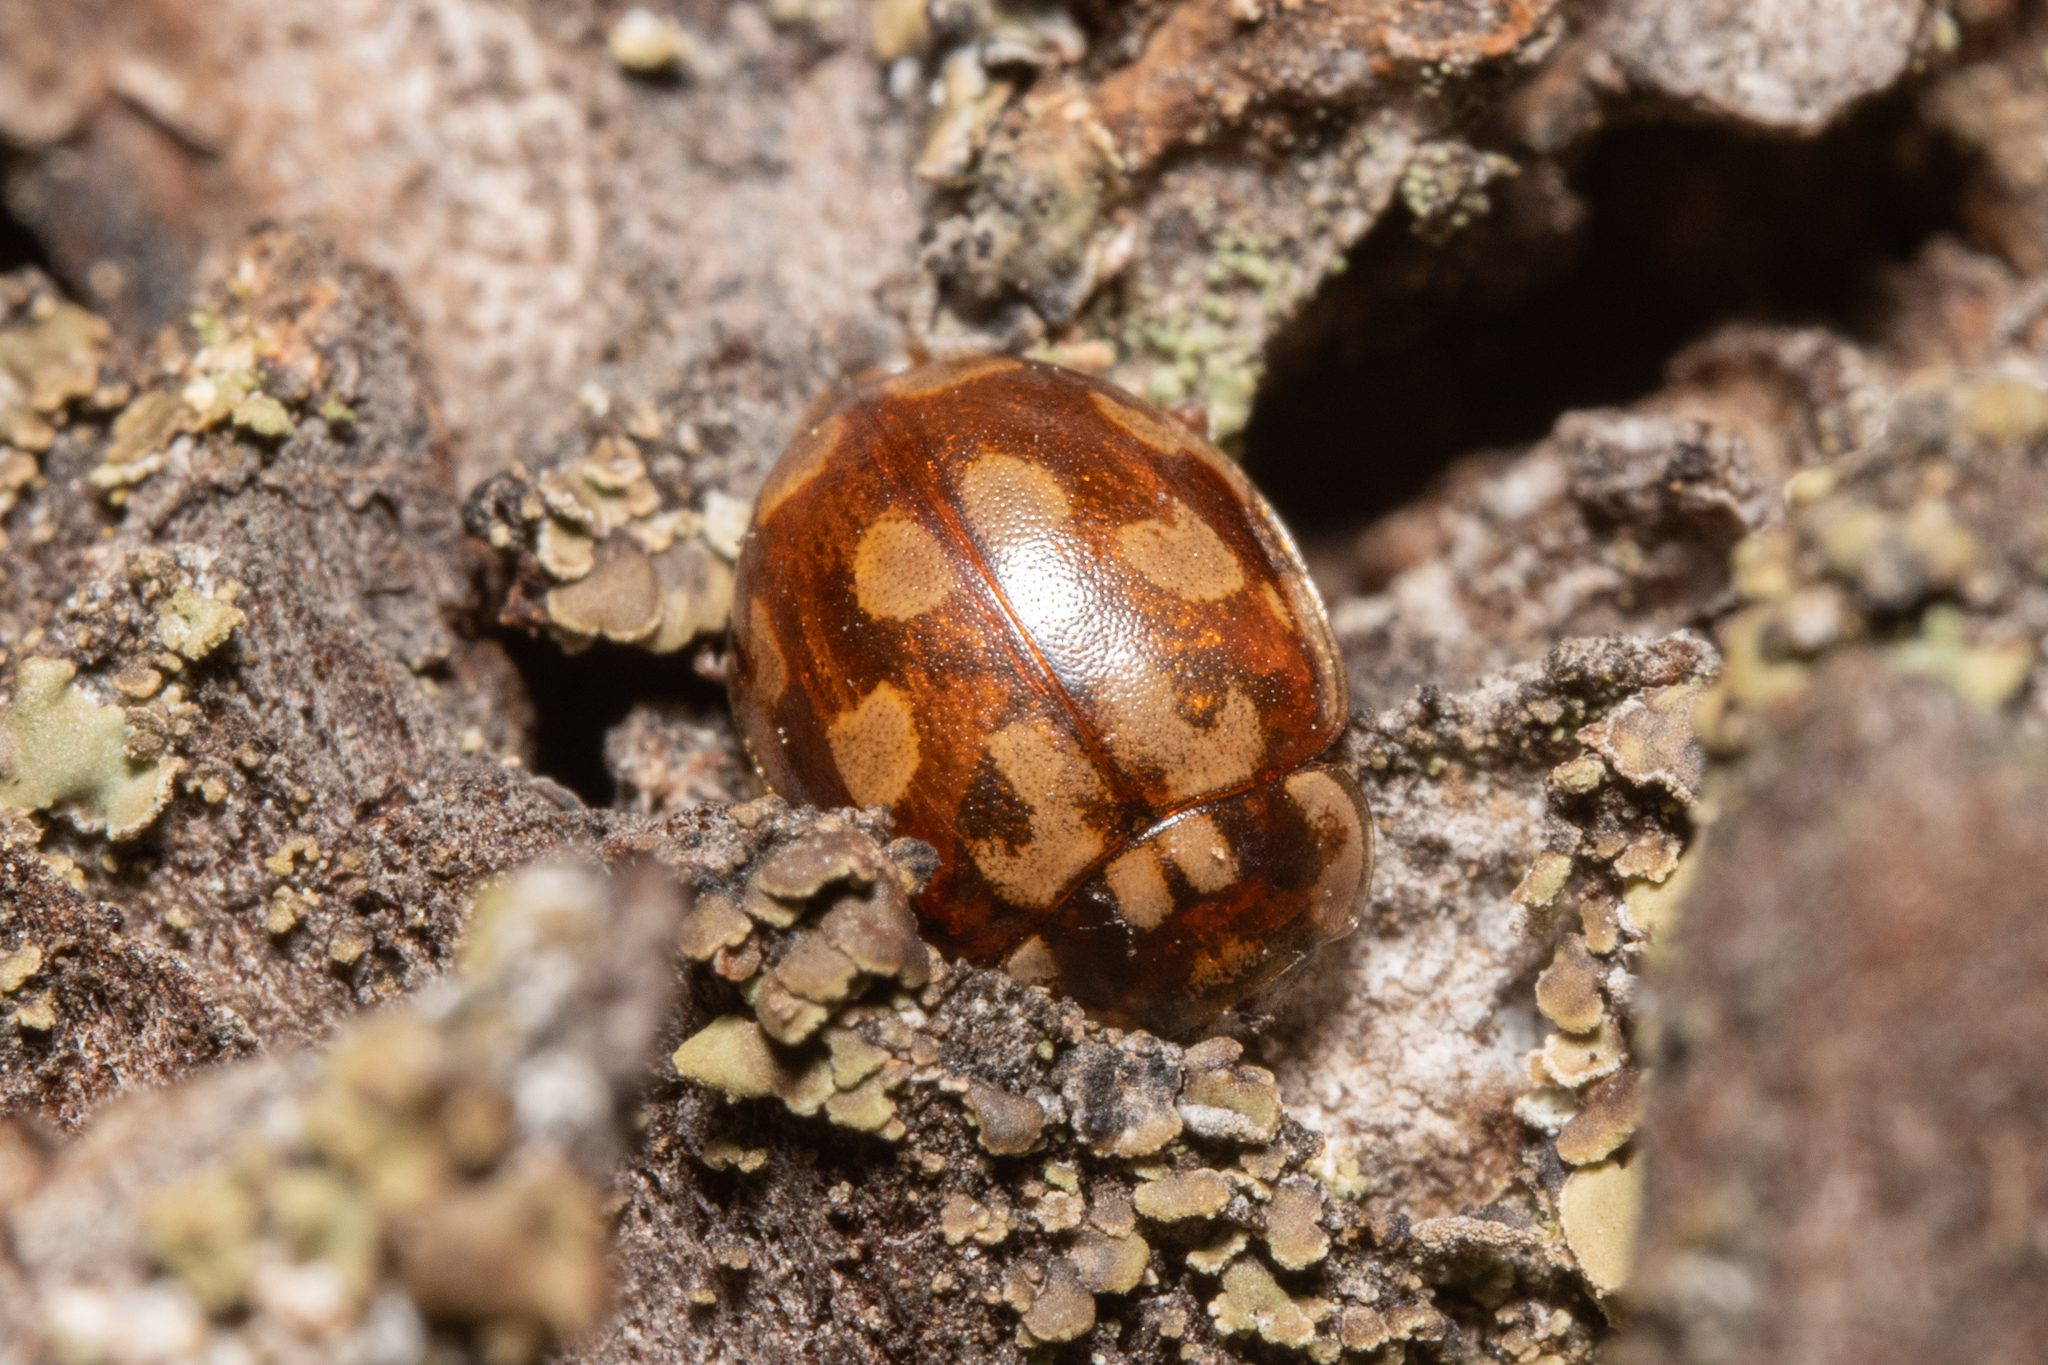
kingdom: Animalia
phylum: Arthropoda
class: Insecta
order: Coleoptera
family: Coccinellidae
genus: Myrrha
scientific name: Myrrha octodecimguttata
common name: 18-spot ladybird
